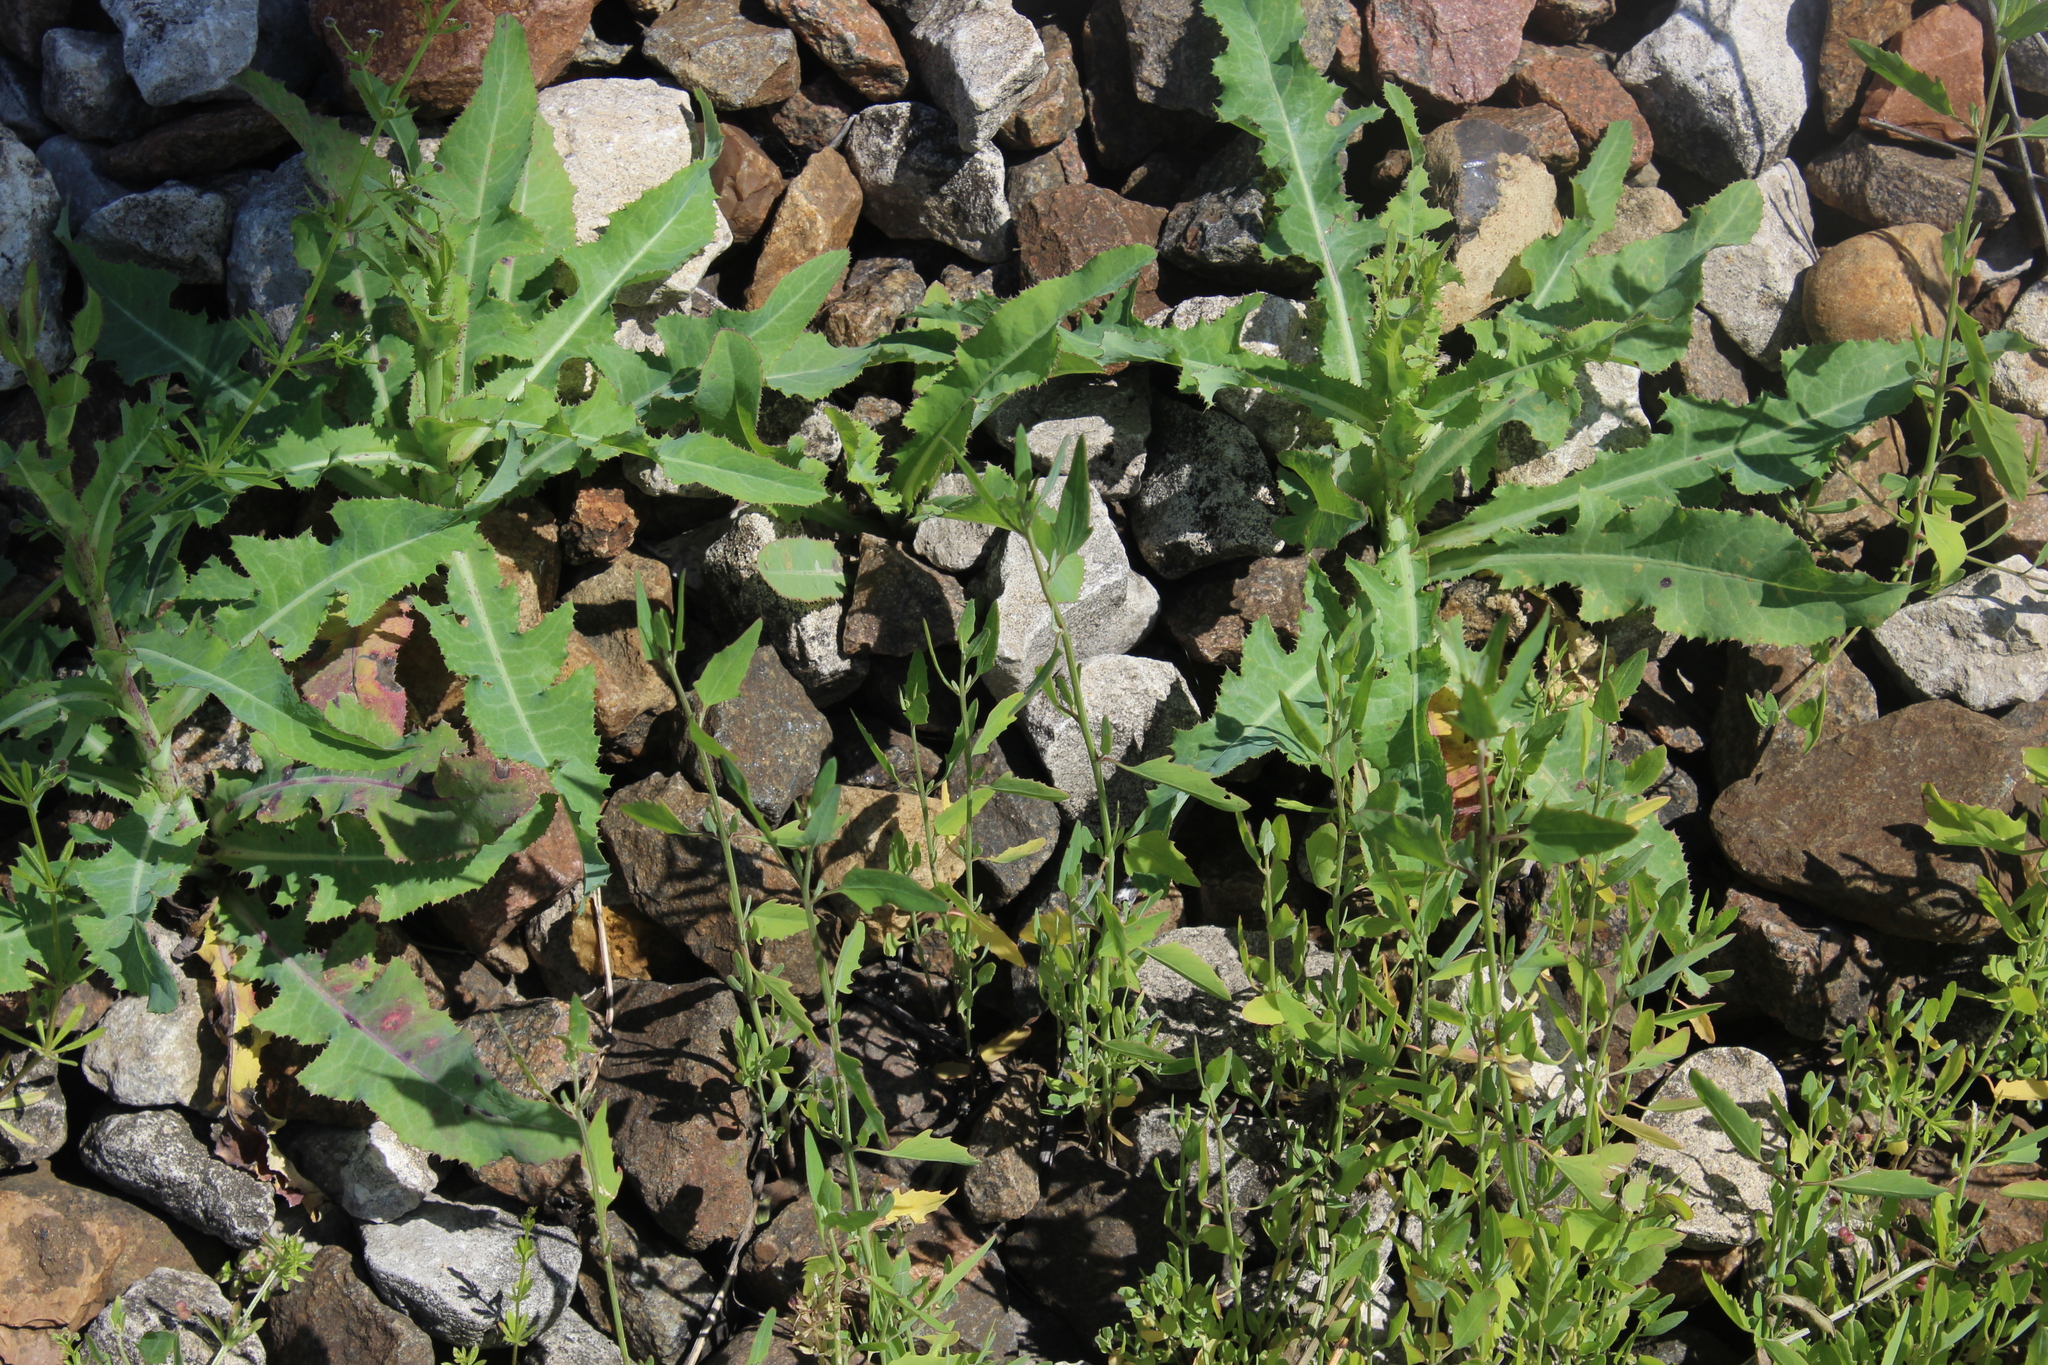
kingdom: Plantae
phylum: Tracheophyta
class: Magnoliopsida
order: Caryophyllales
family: Amaranthaceae
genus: Atriplex
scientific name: Atriplex patula
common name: Common orache
